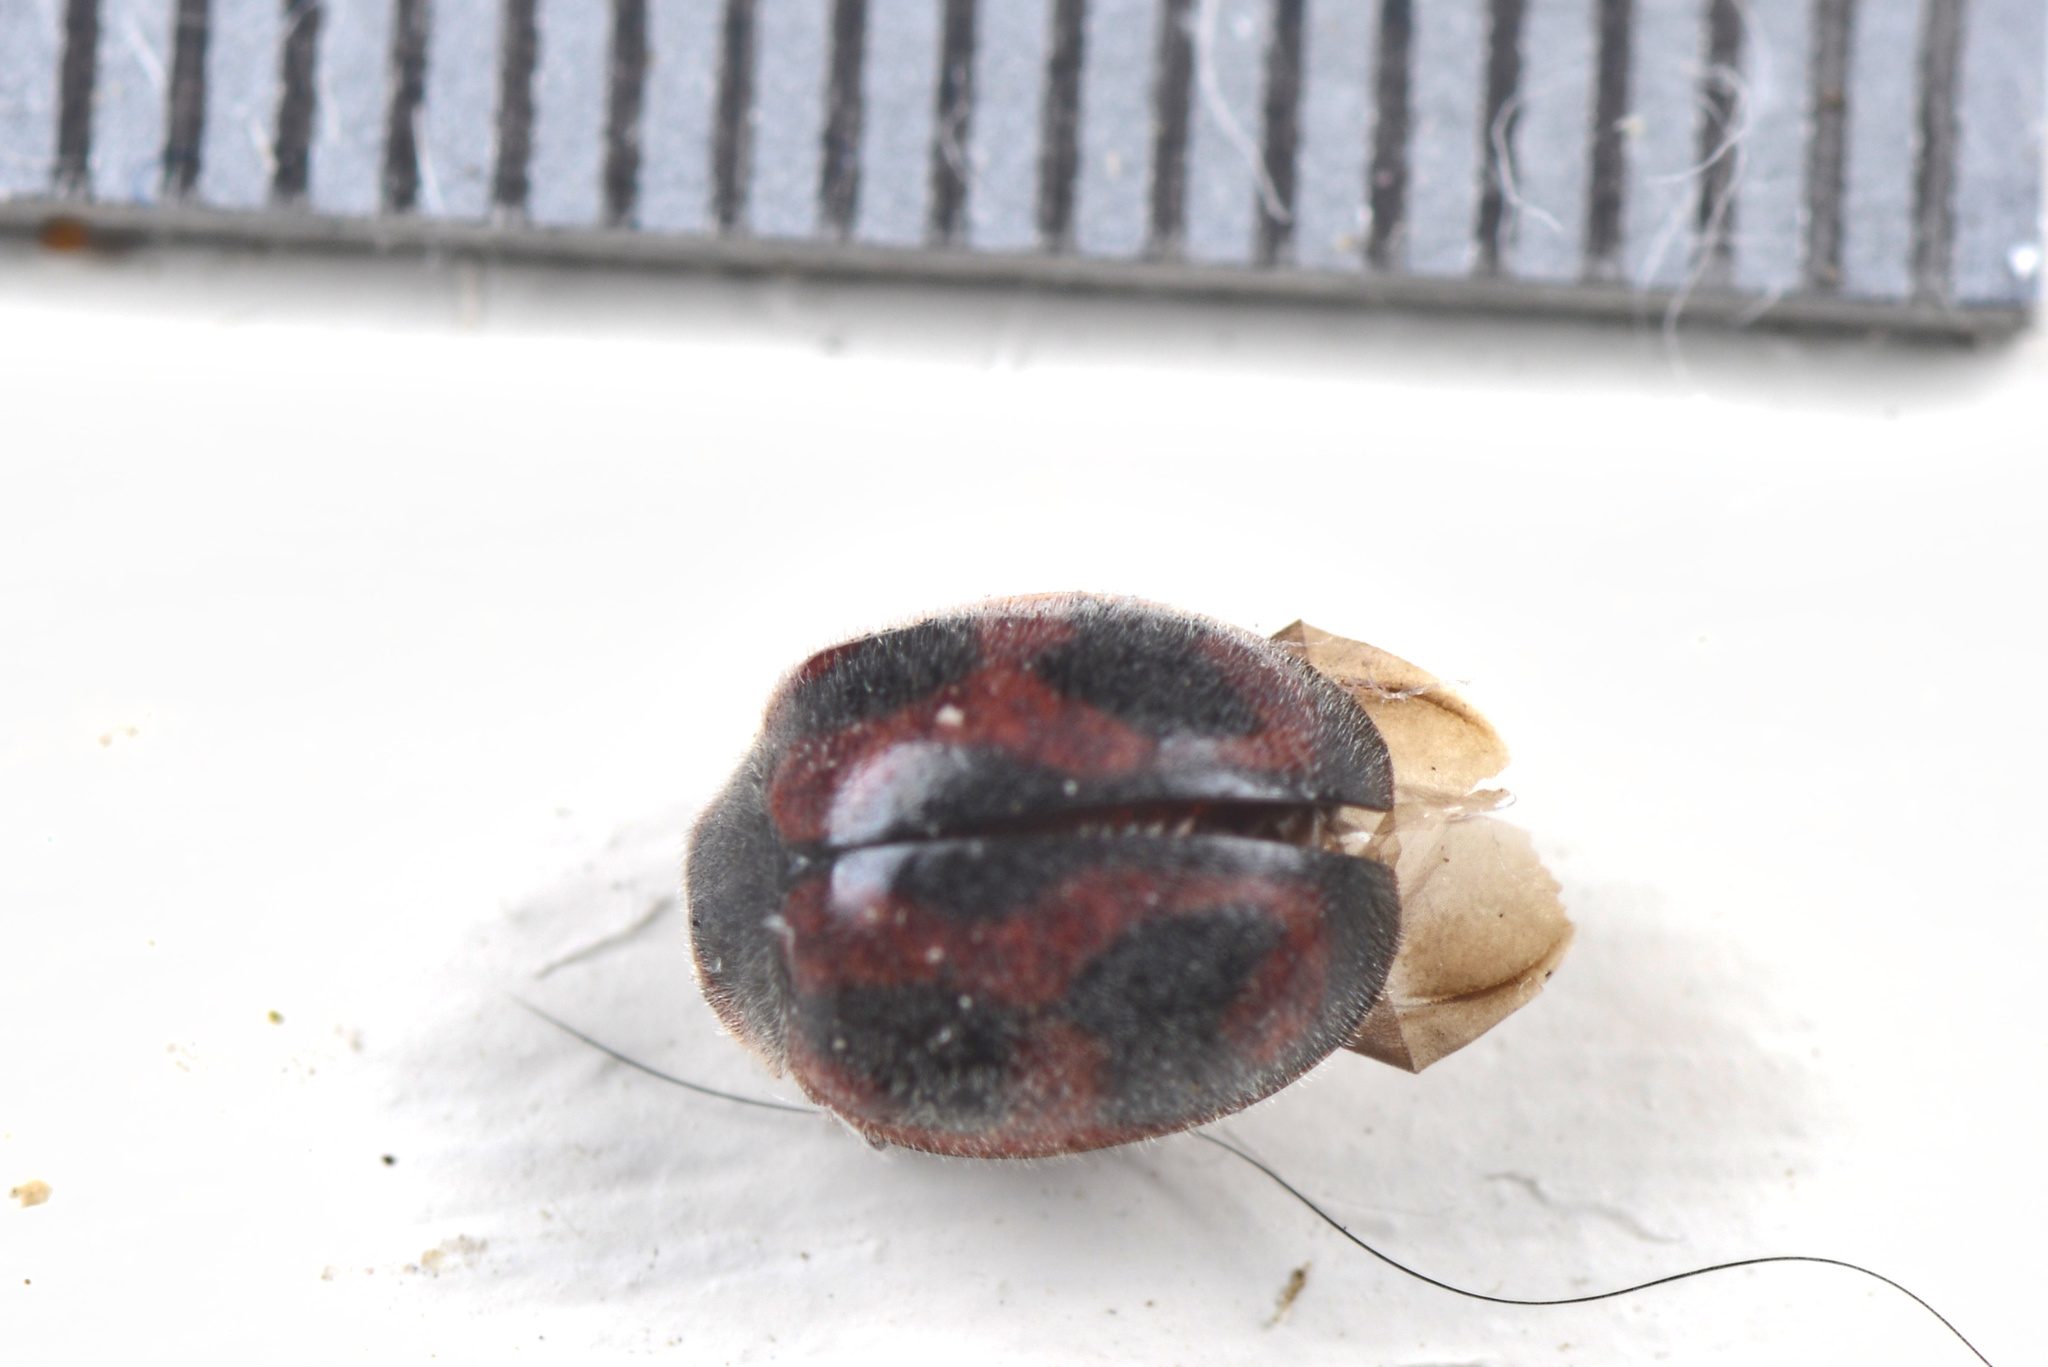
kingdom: Animalia
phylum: Arthropoda
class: Insecta
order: Coleoptera
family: Coccinellidae
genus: Novius
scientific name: Novius cardinalis
